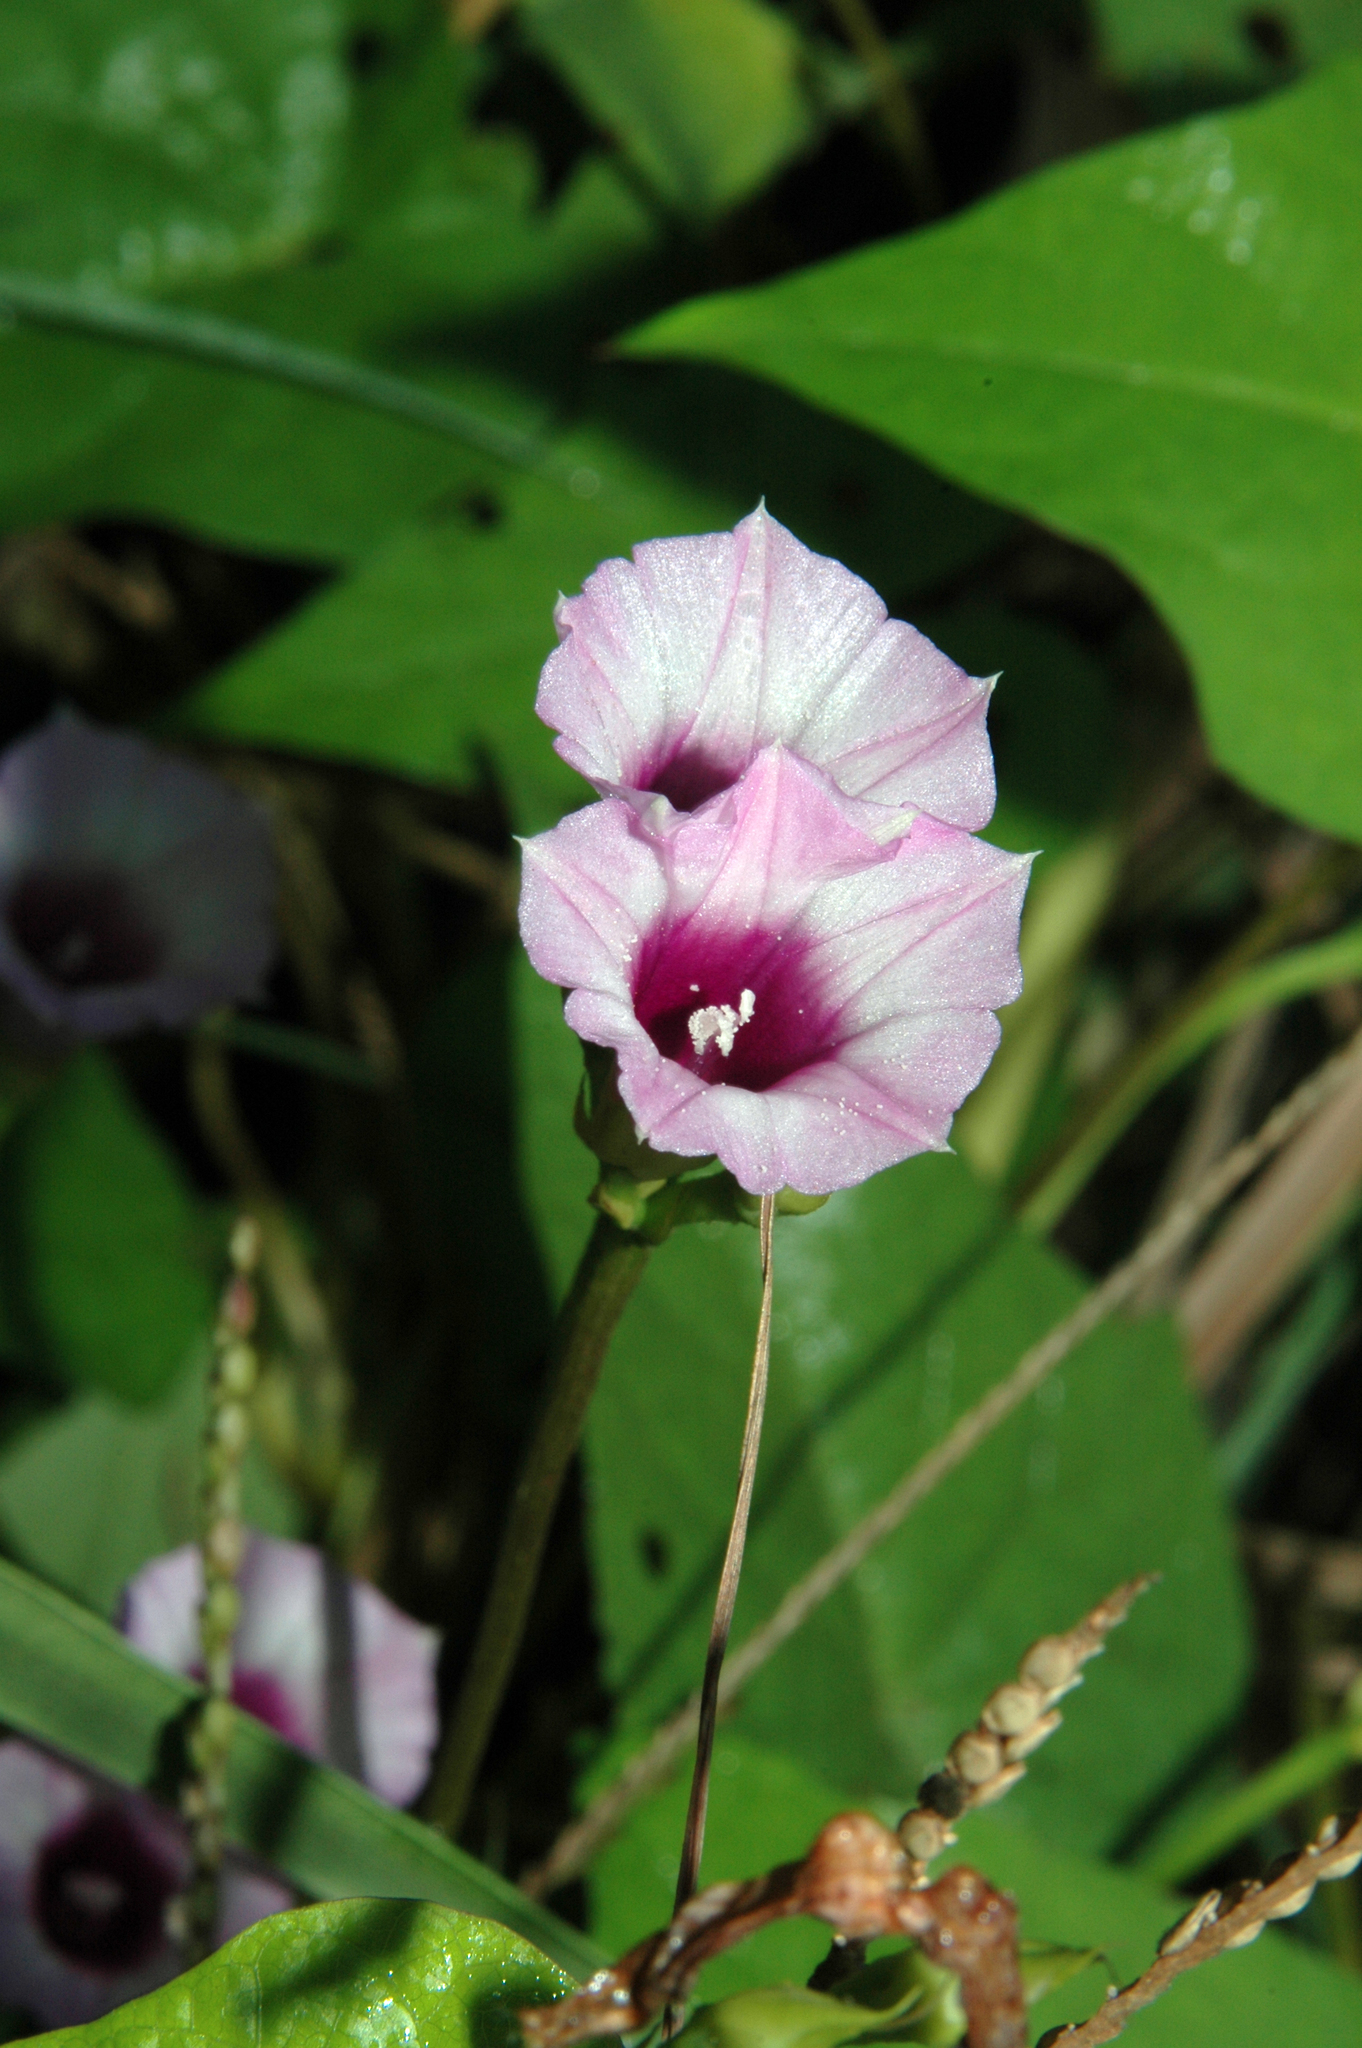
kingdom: Plantae
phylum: Tracheophyta
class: Magnoliopsida
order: Solanales
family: Convolvulaceae
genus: Ipomoea
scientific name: Ipomoea triloba
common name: Little-bell
